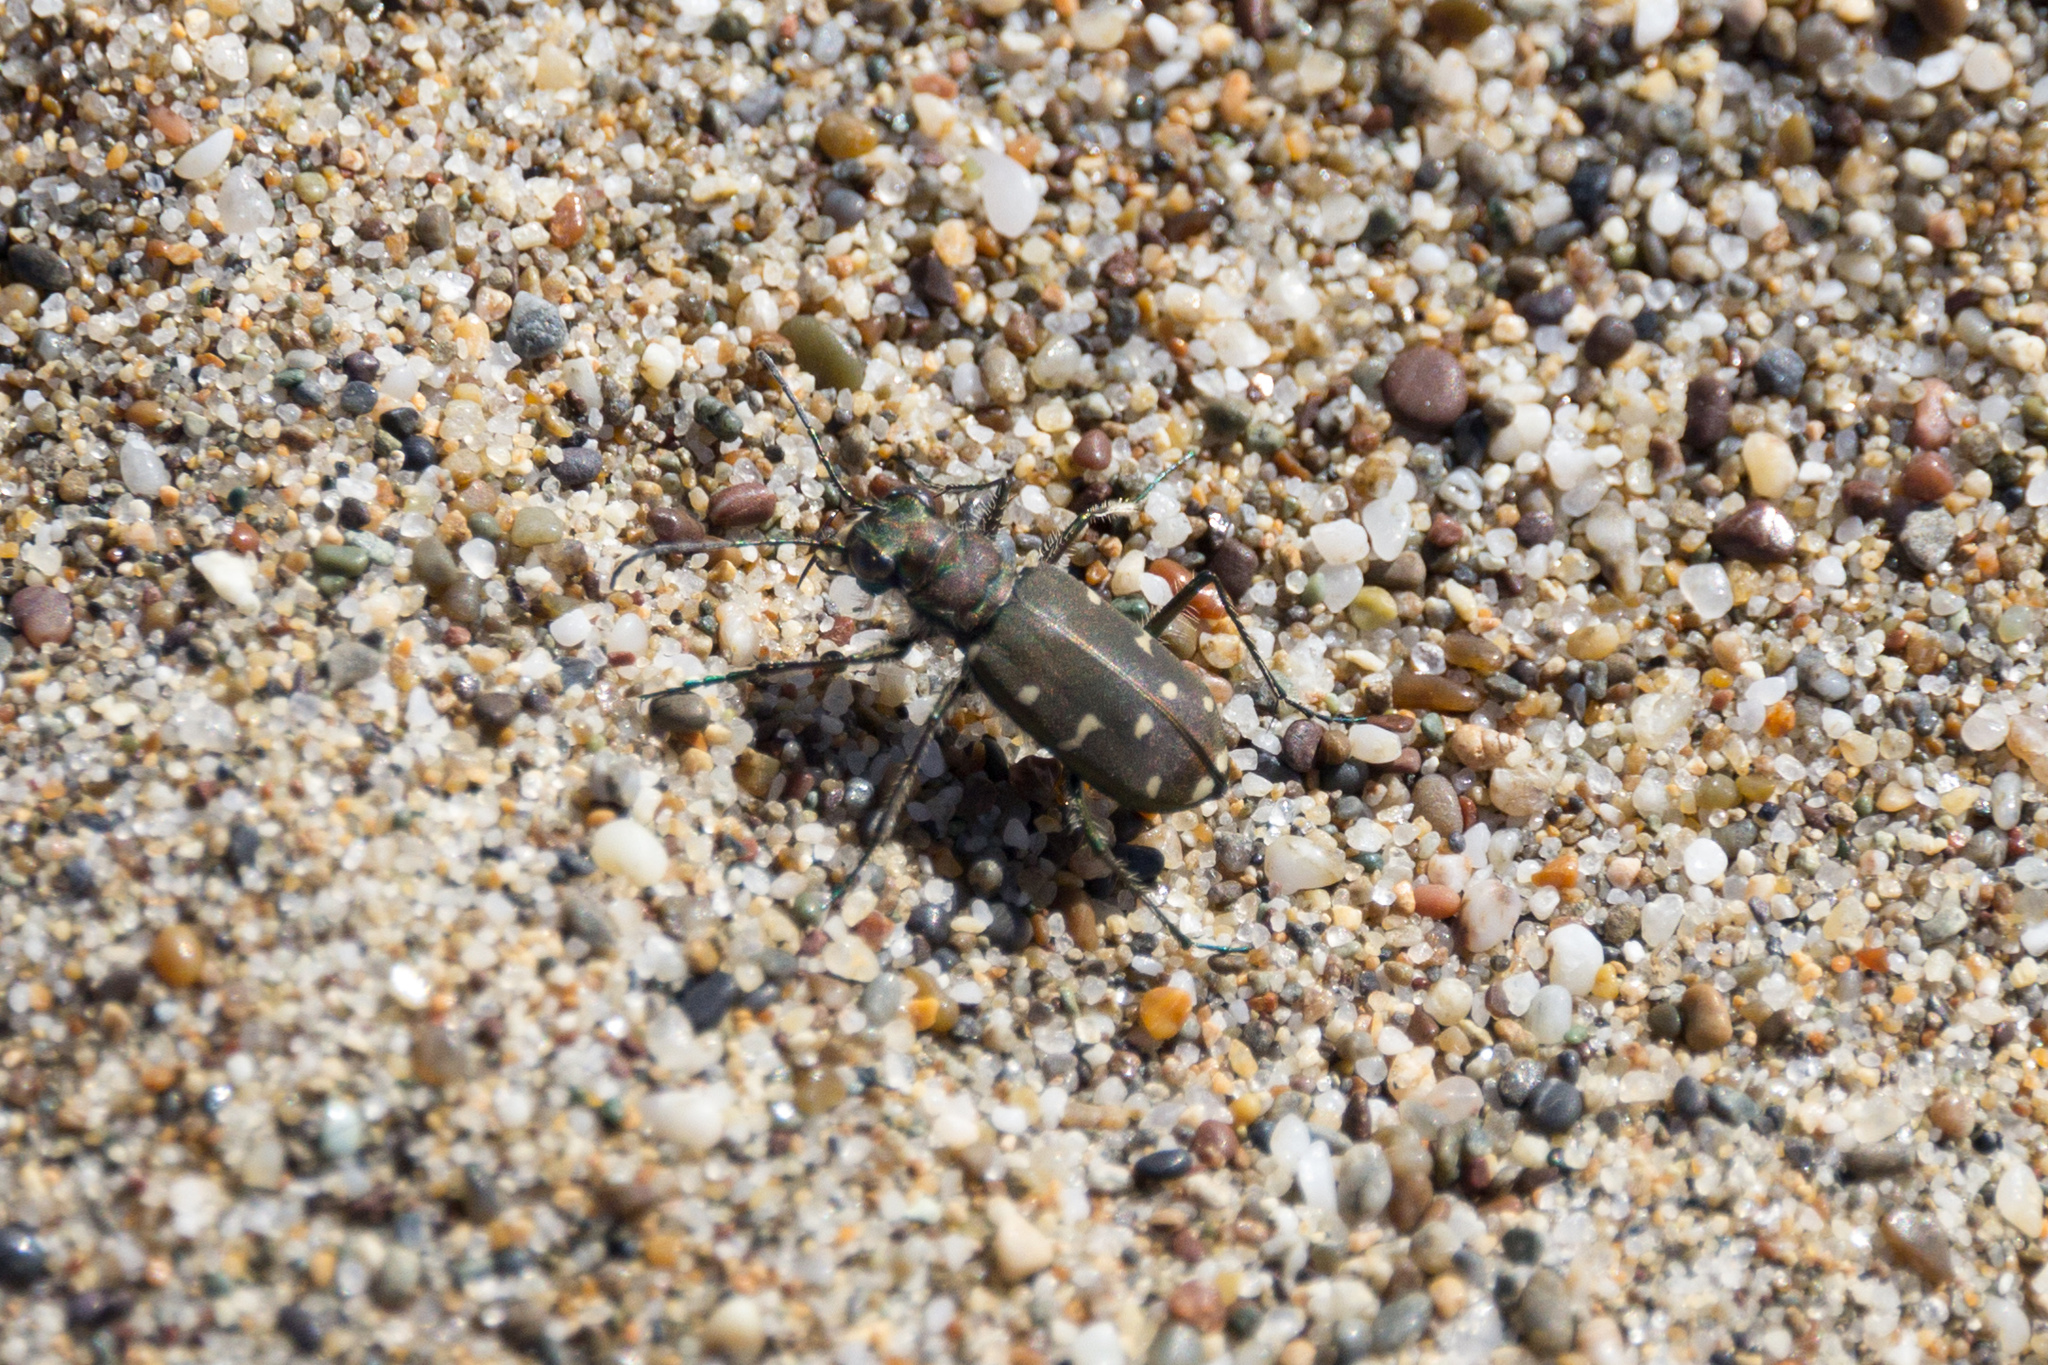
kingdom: Animalia
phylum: Arthropoda
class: Insecta
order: Coleoptera
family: Carabidae
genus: Cicindela
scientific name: Cicindela oregona
